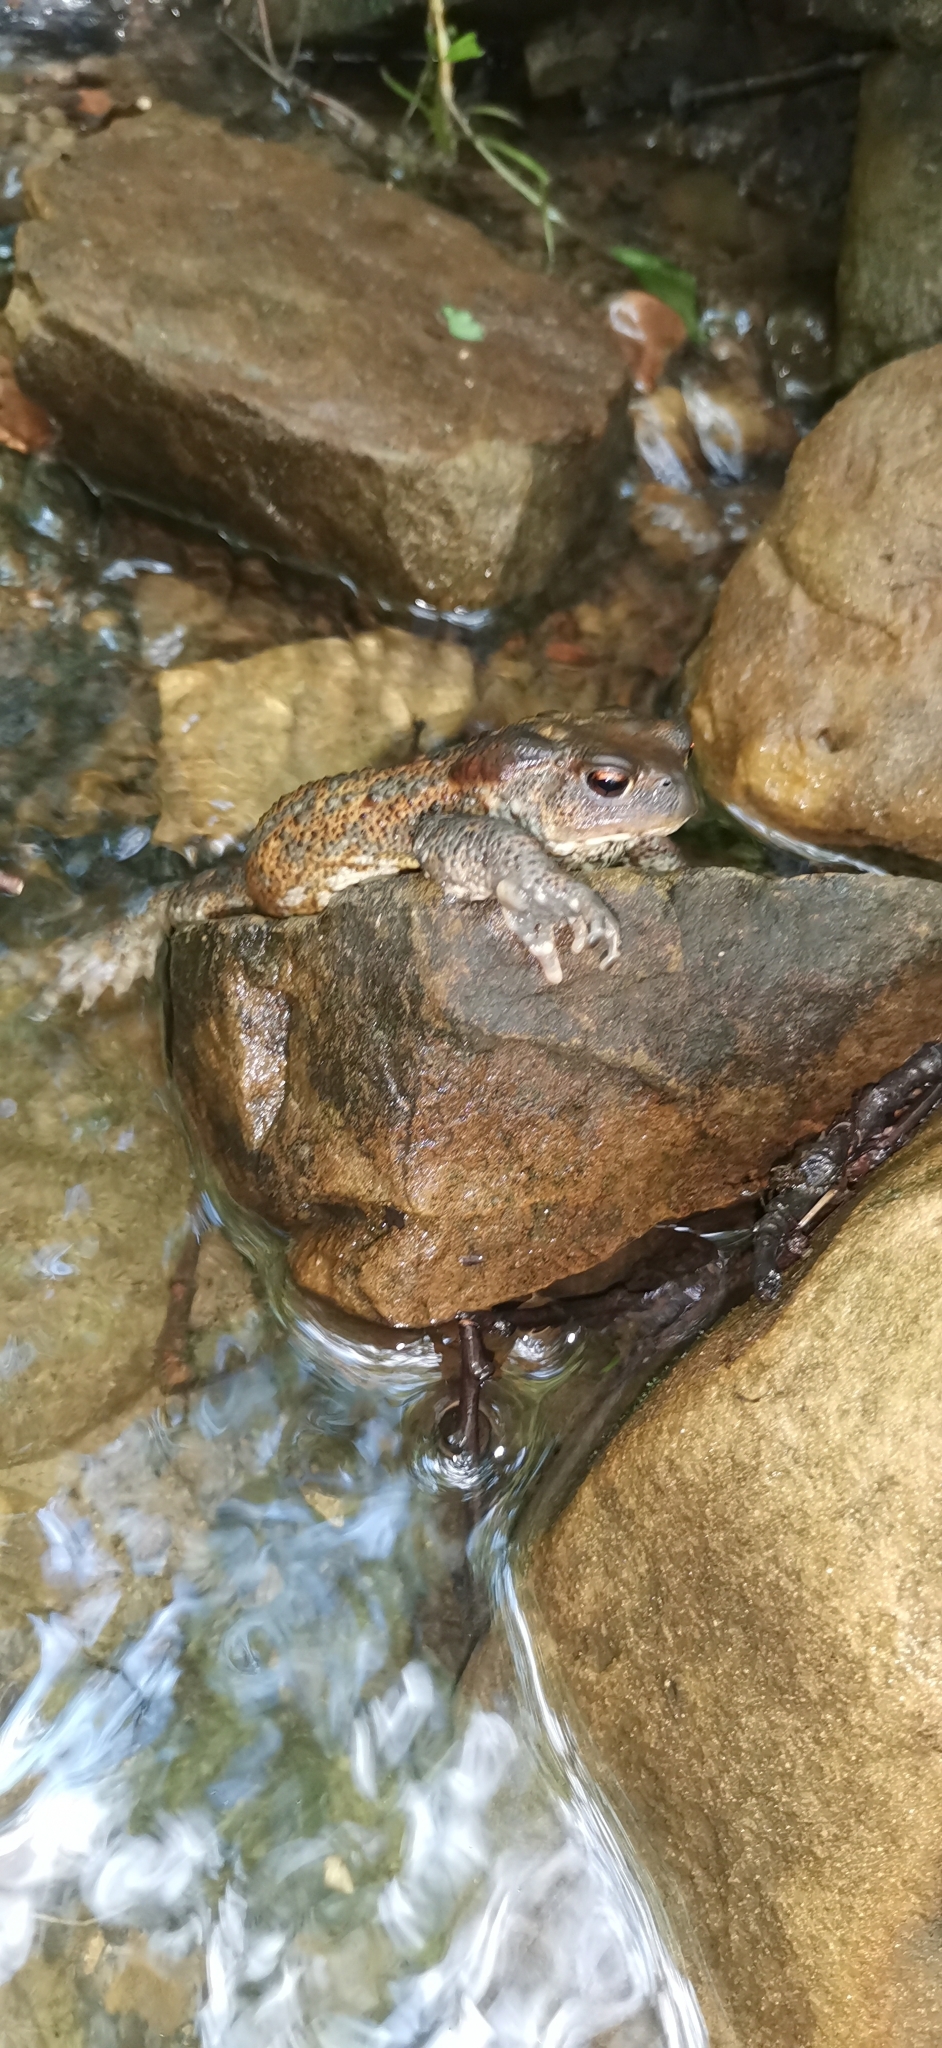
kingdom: Animalia
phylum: Chordata
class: Amphibia
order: Anura
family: Bufonidae
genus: Bufo
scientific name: Bufo bufo
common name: Common toad
